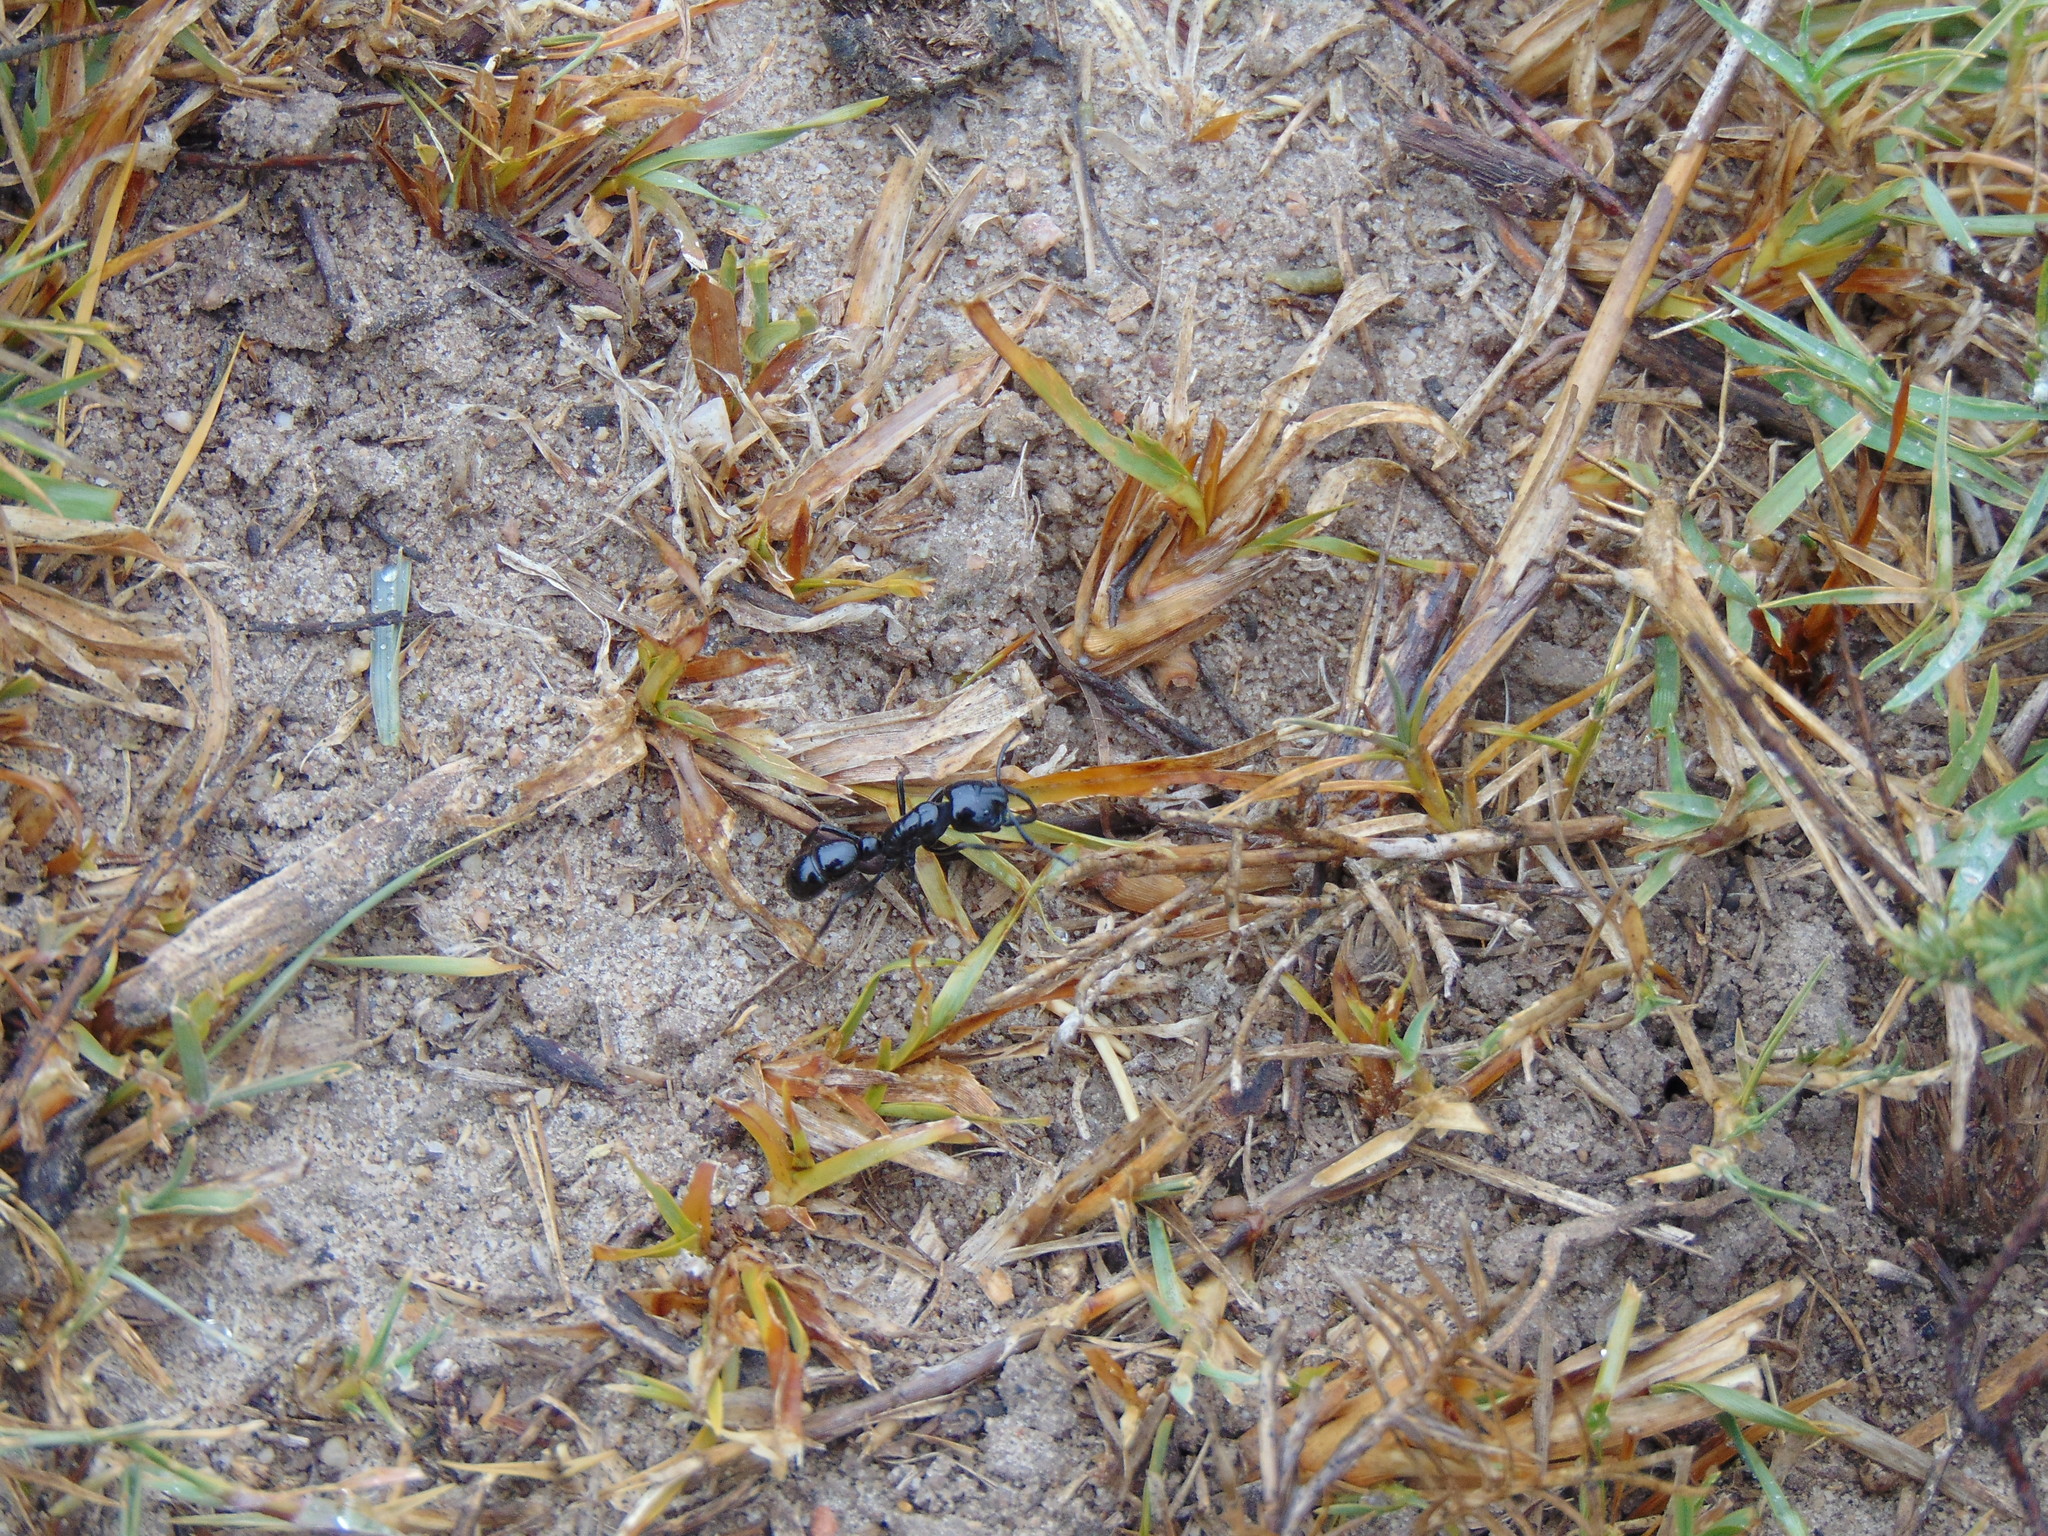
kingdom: Animalia
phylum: Arthropoda
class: Insecta
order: Hymenoptera
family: Formicidae
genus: Plectroctena
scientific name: Plectroctena mandibularis
